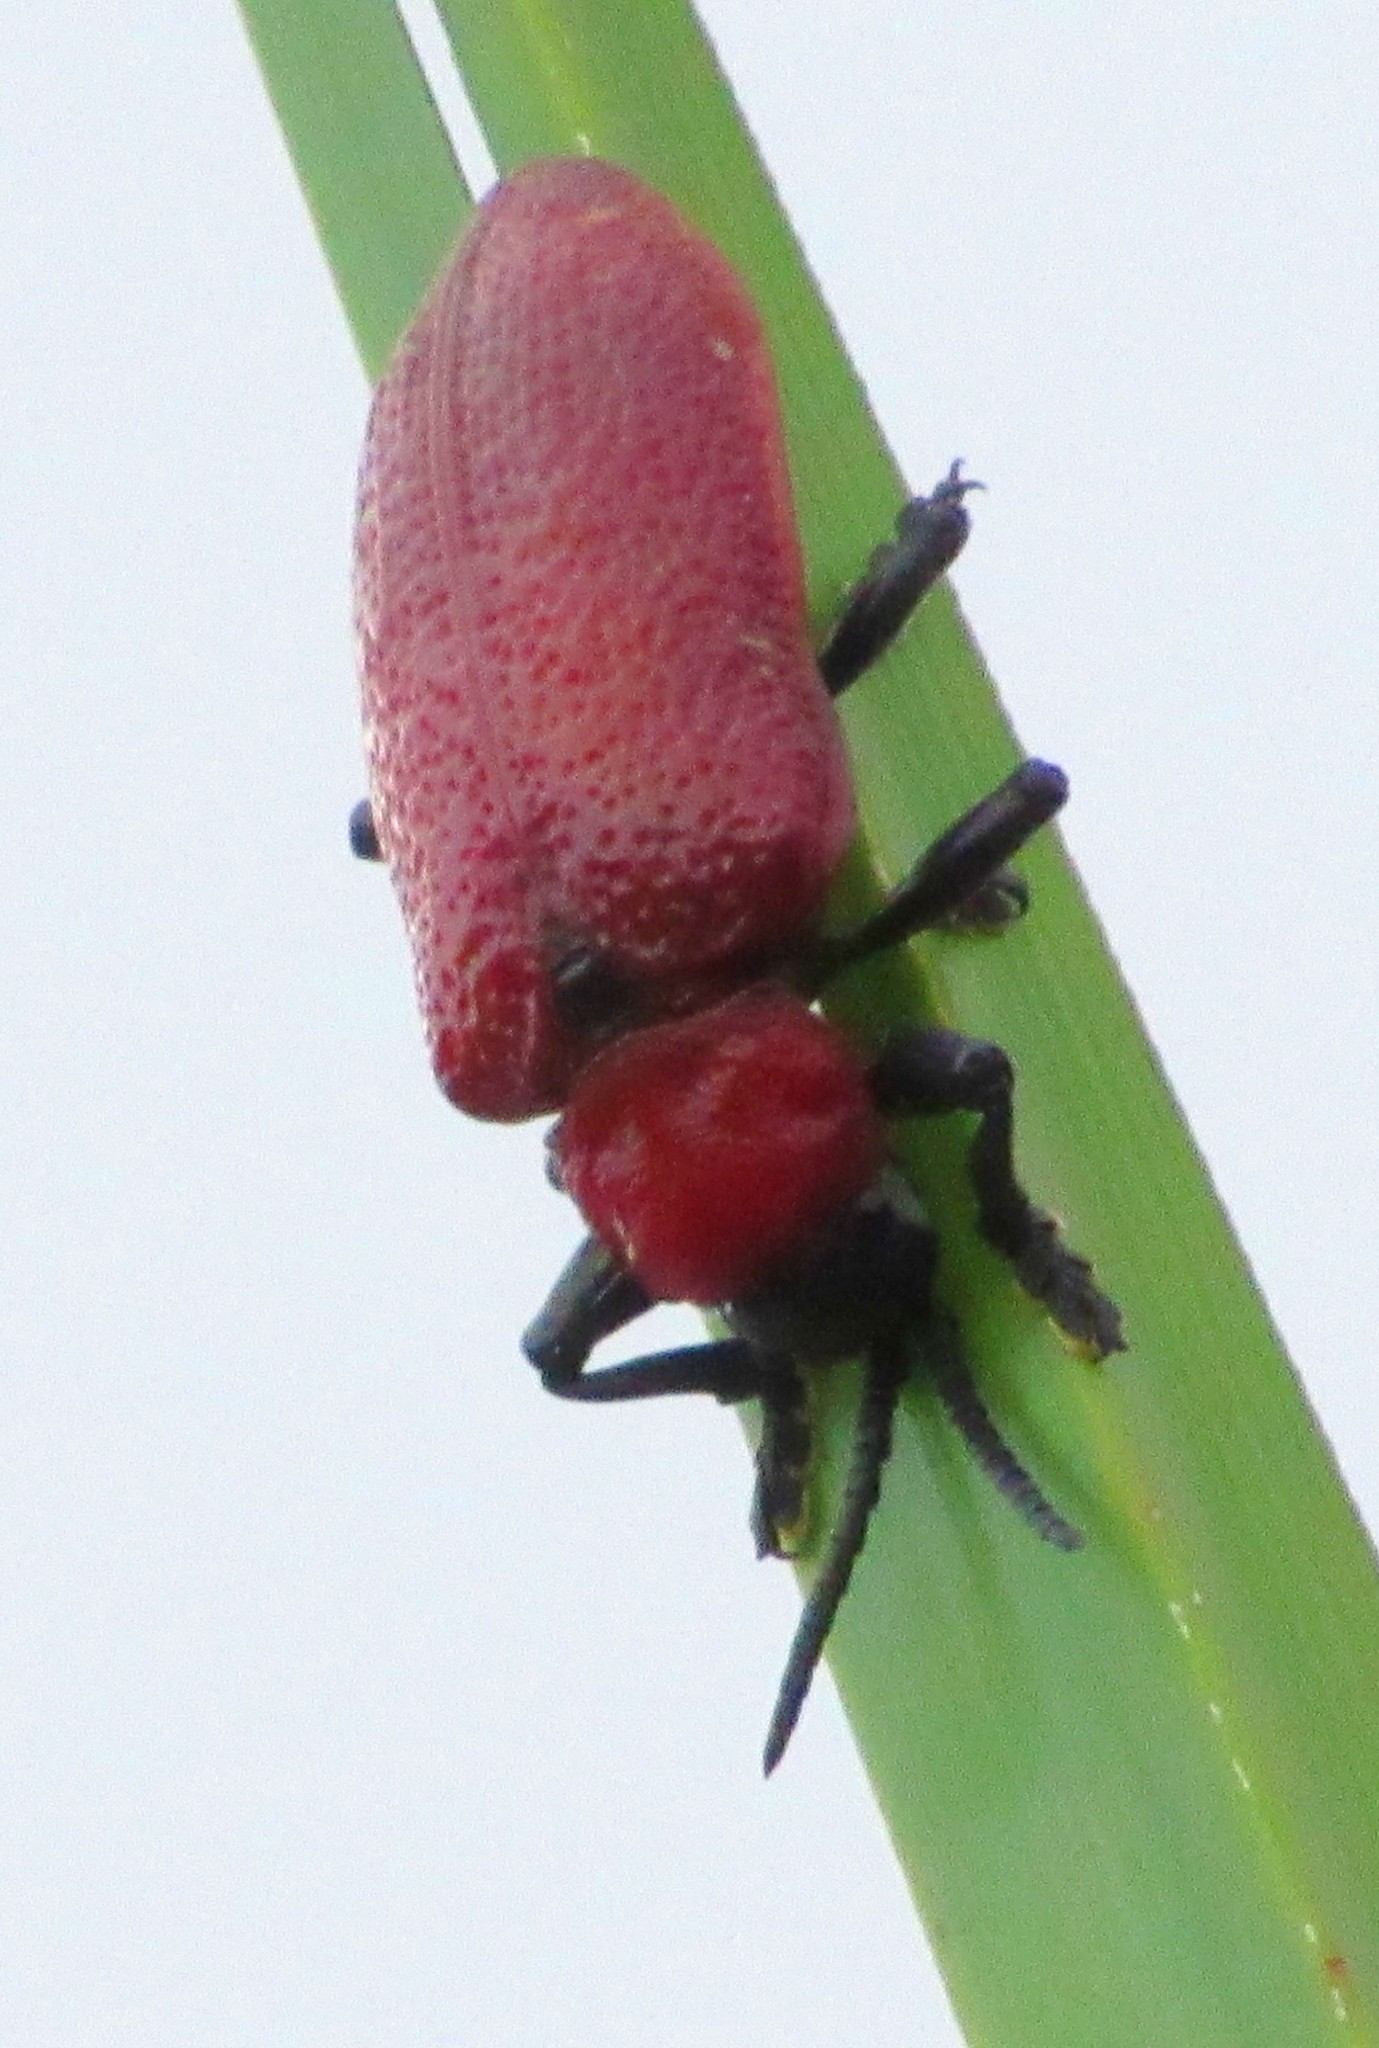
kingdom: Animalia
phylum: Arthropoda
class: Insecta
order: Coleoptera
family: Chrysomelidae
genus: Coraliomela
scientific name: Coraliomela brunnea
